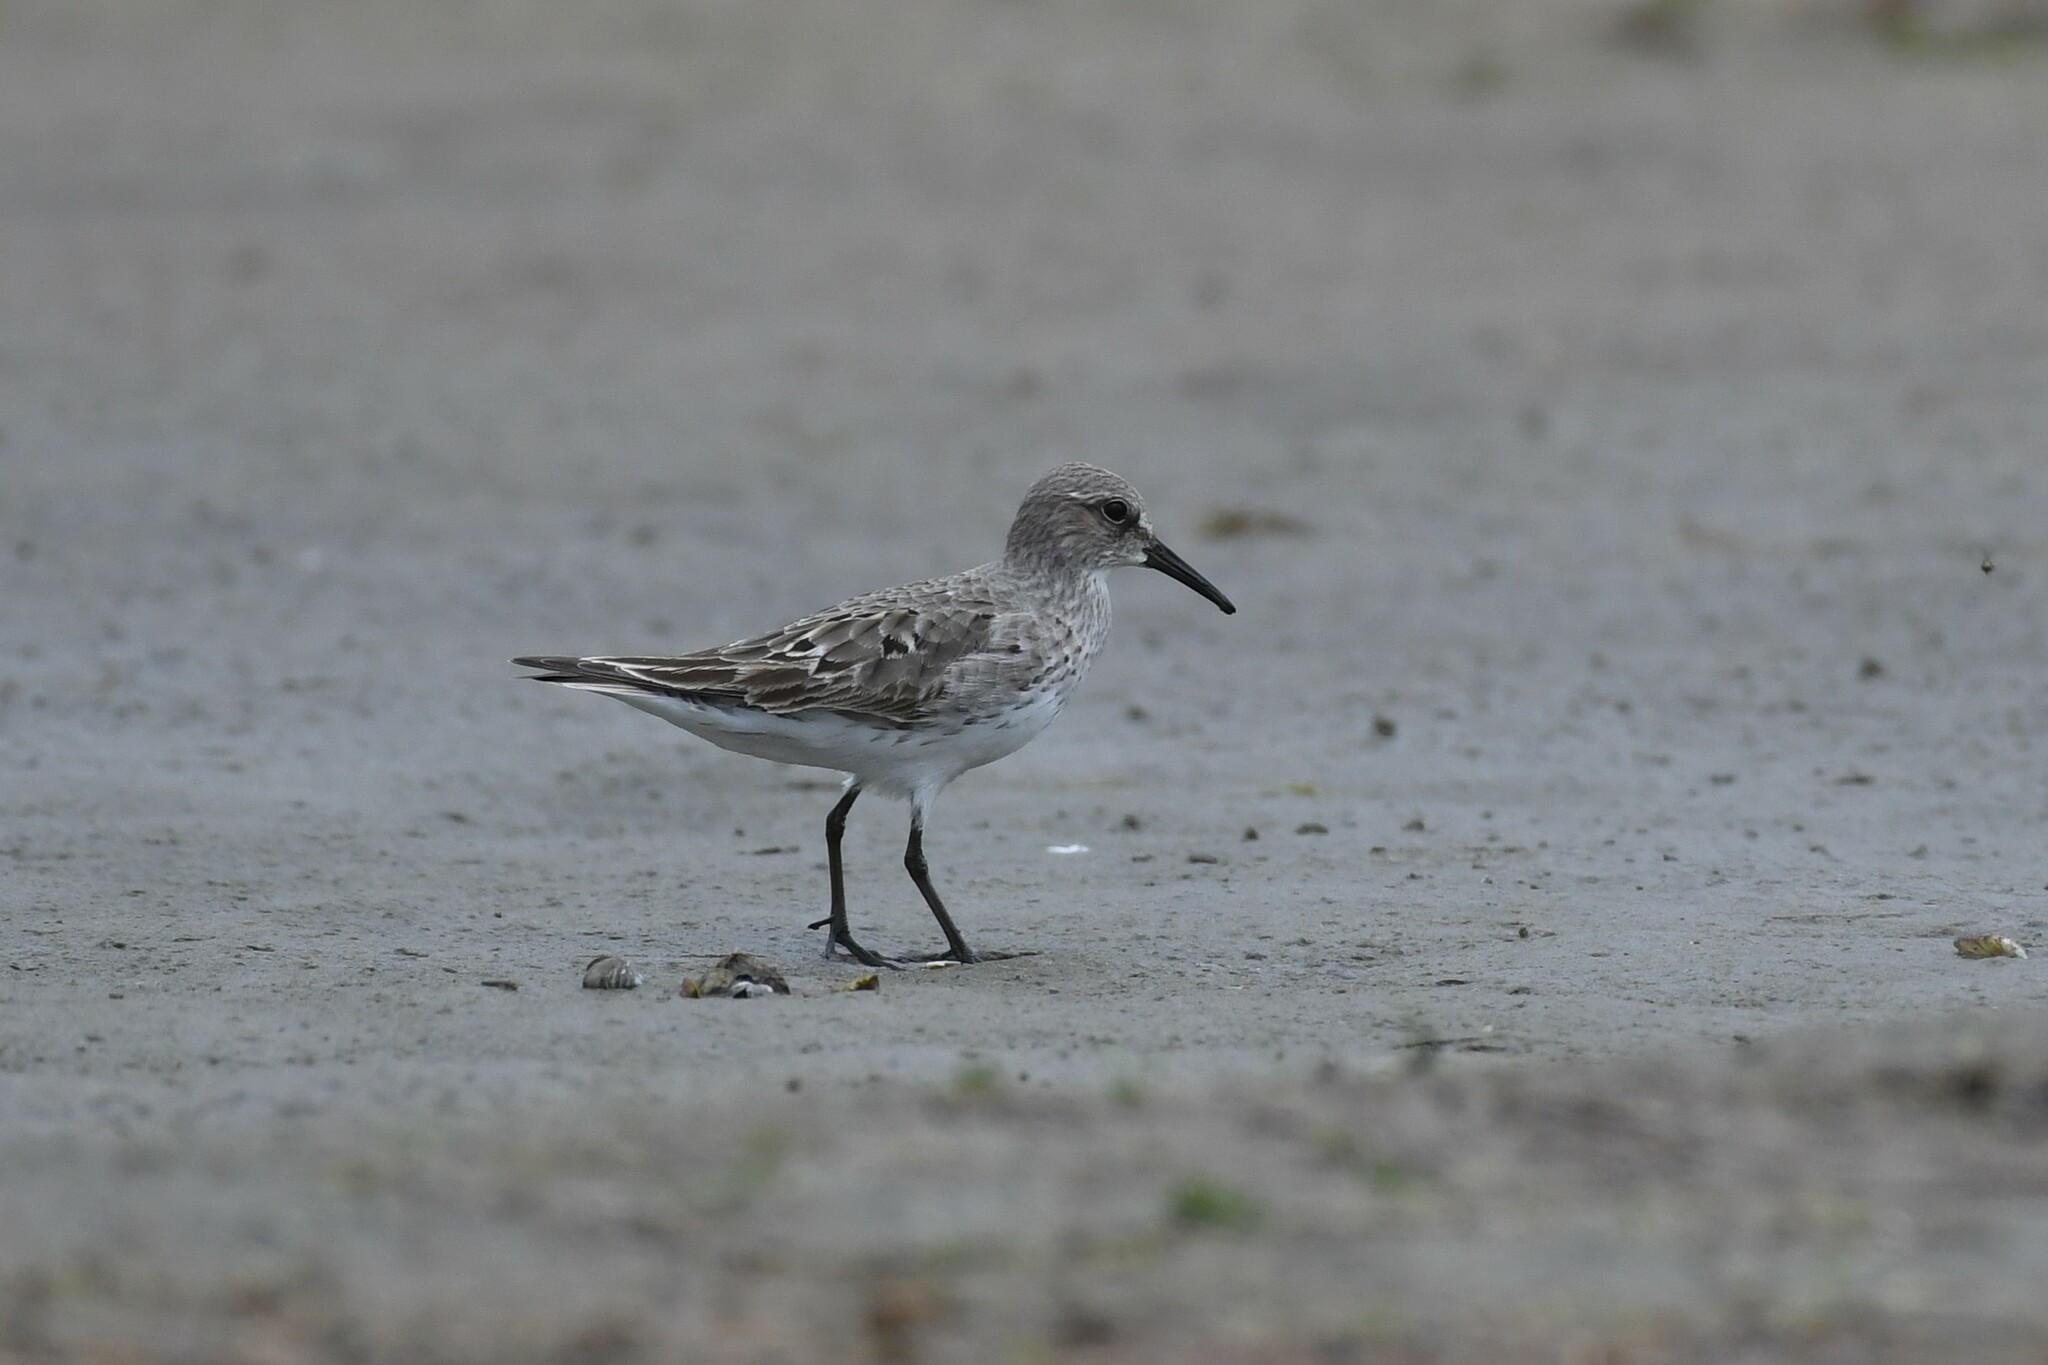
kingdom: Animalia
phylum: Chordata
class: Aves
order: Charadriiformes
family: Scolopacidae
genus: Calidris
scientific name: Calidris fuscicollis
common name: White-rumped sandpiper
